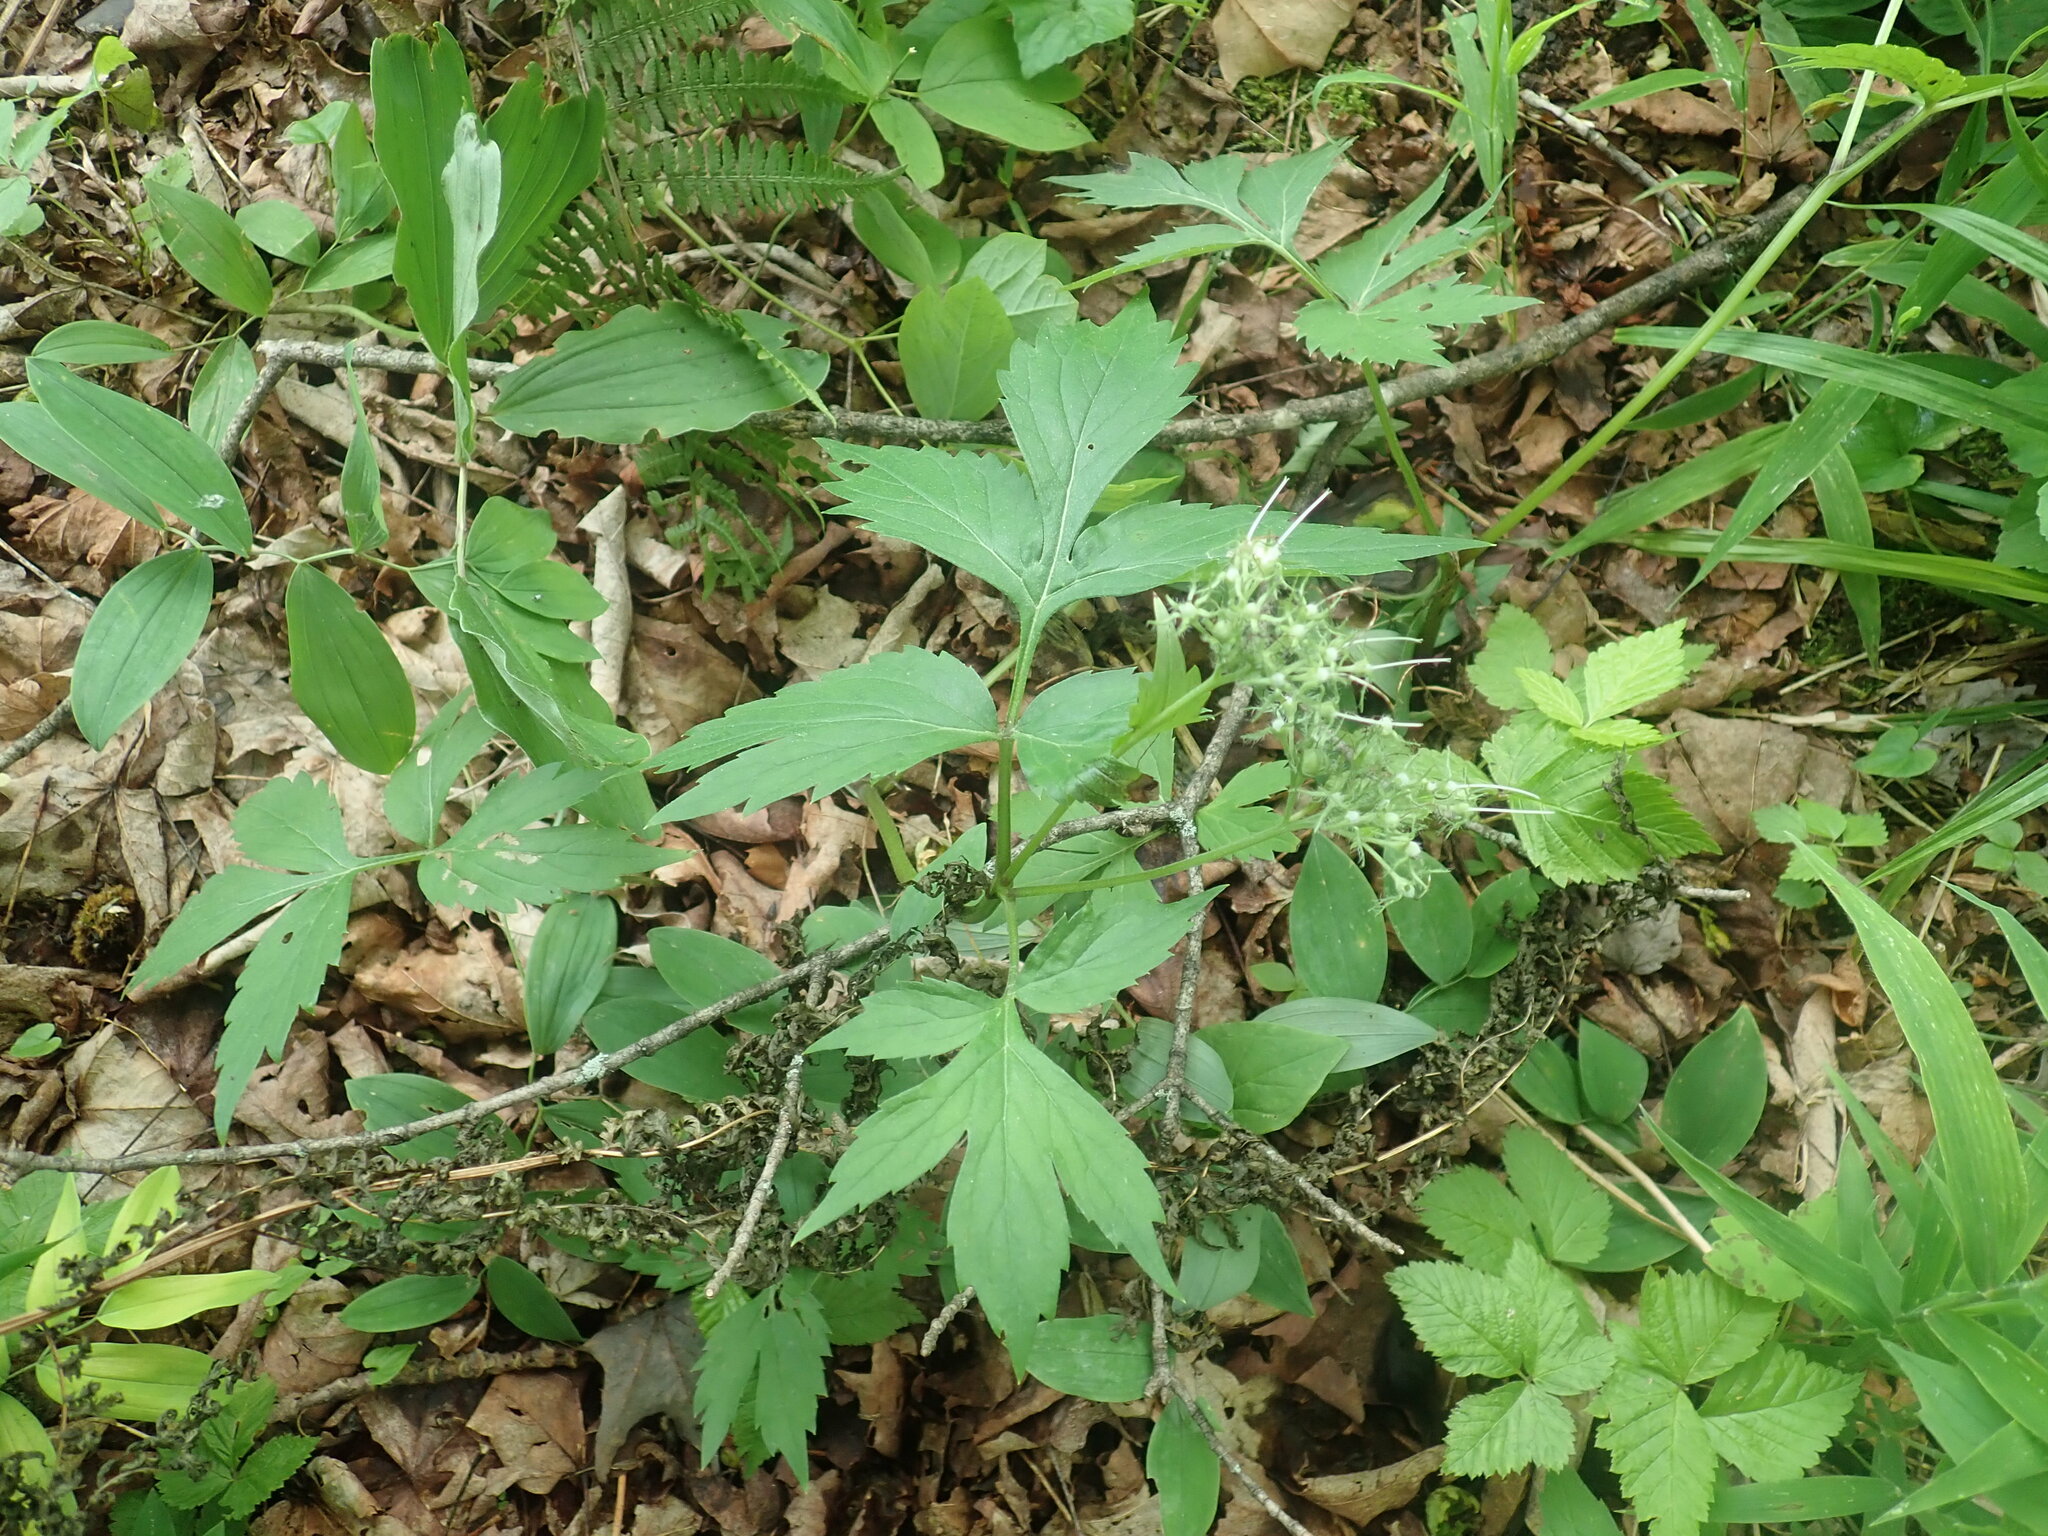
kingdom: Plantae
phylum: Tracheophyta
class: Magnoliopsida
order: Boraginales
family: Hydrophyllaceae
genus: Hydrophyllum
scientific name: Hydrophyllum virginianum
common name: Virginia waterleaf
